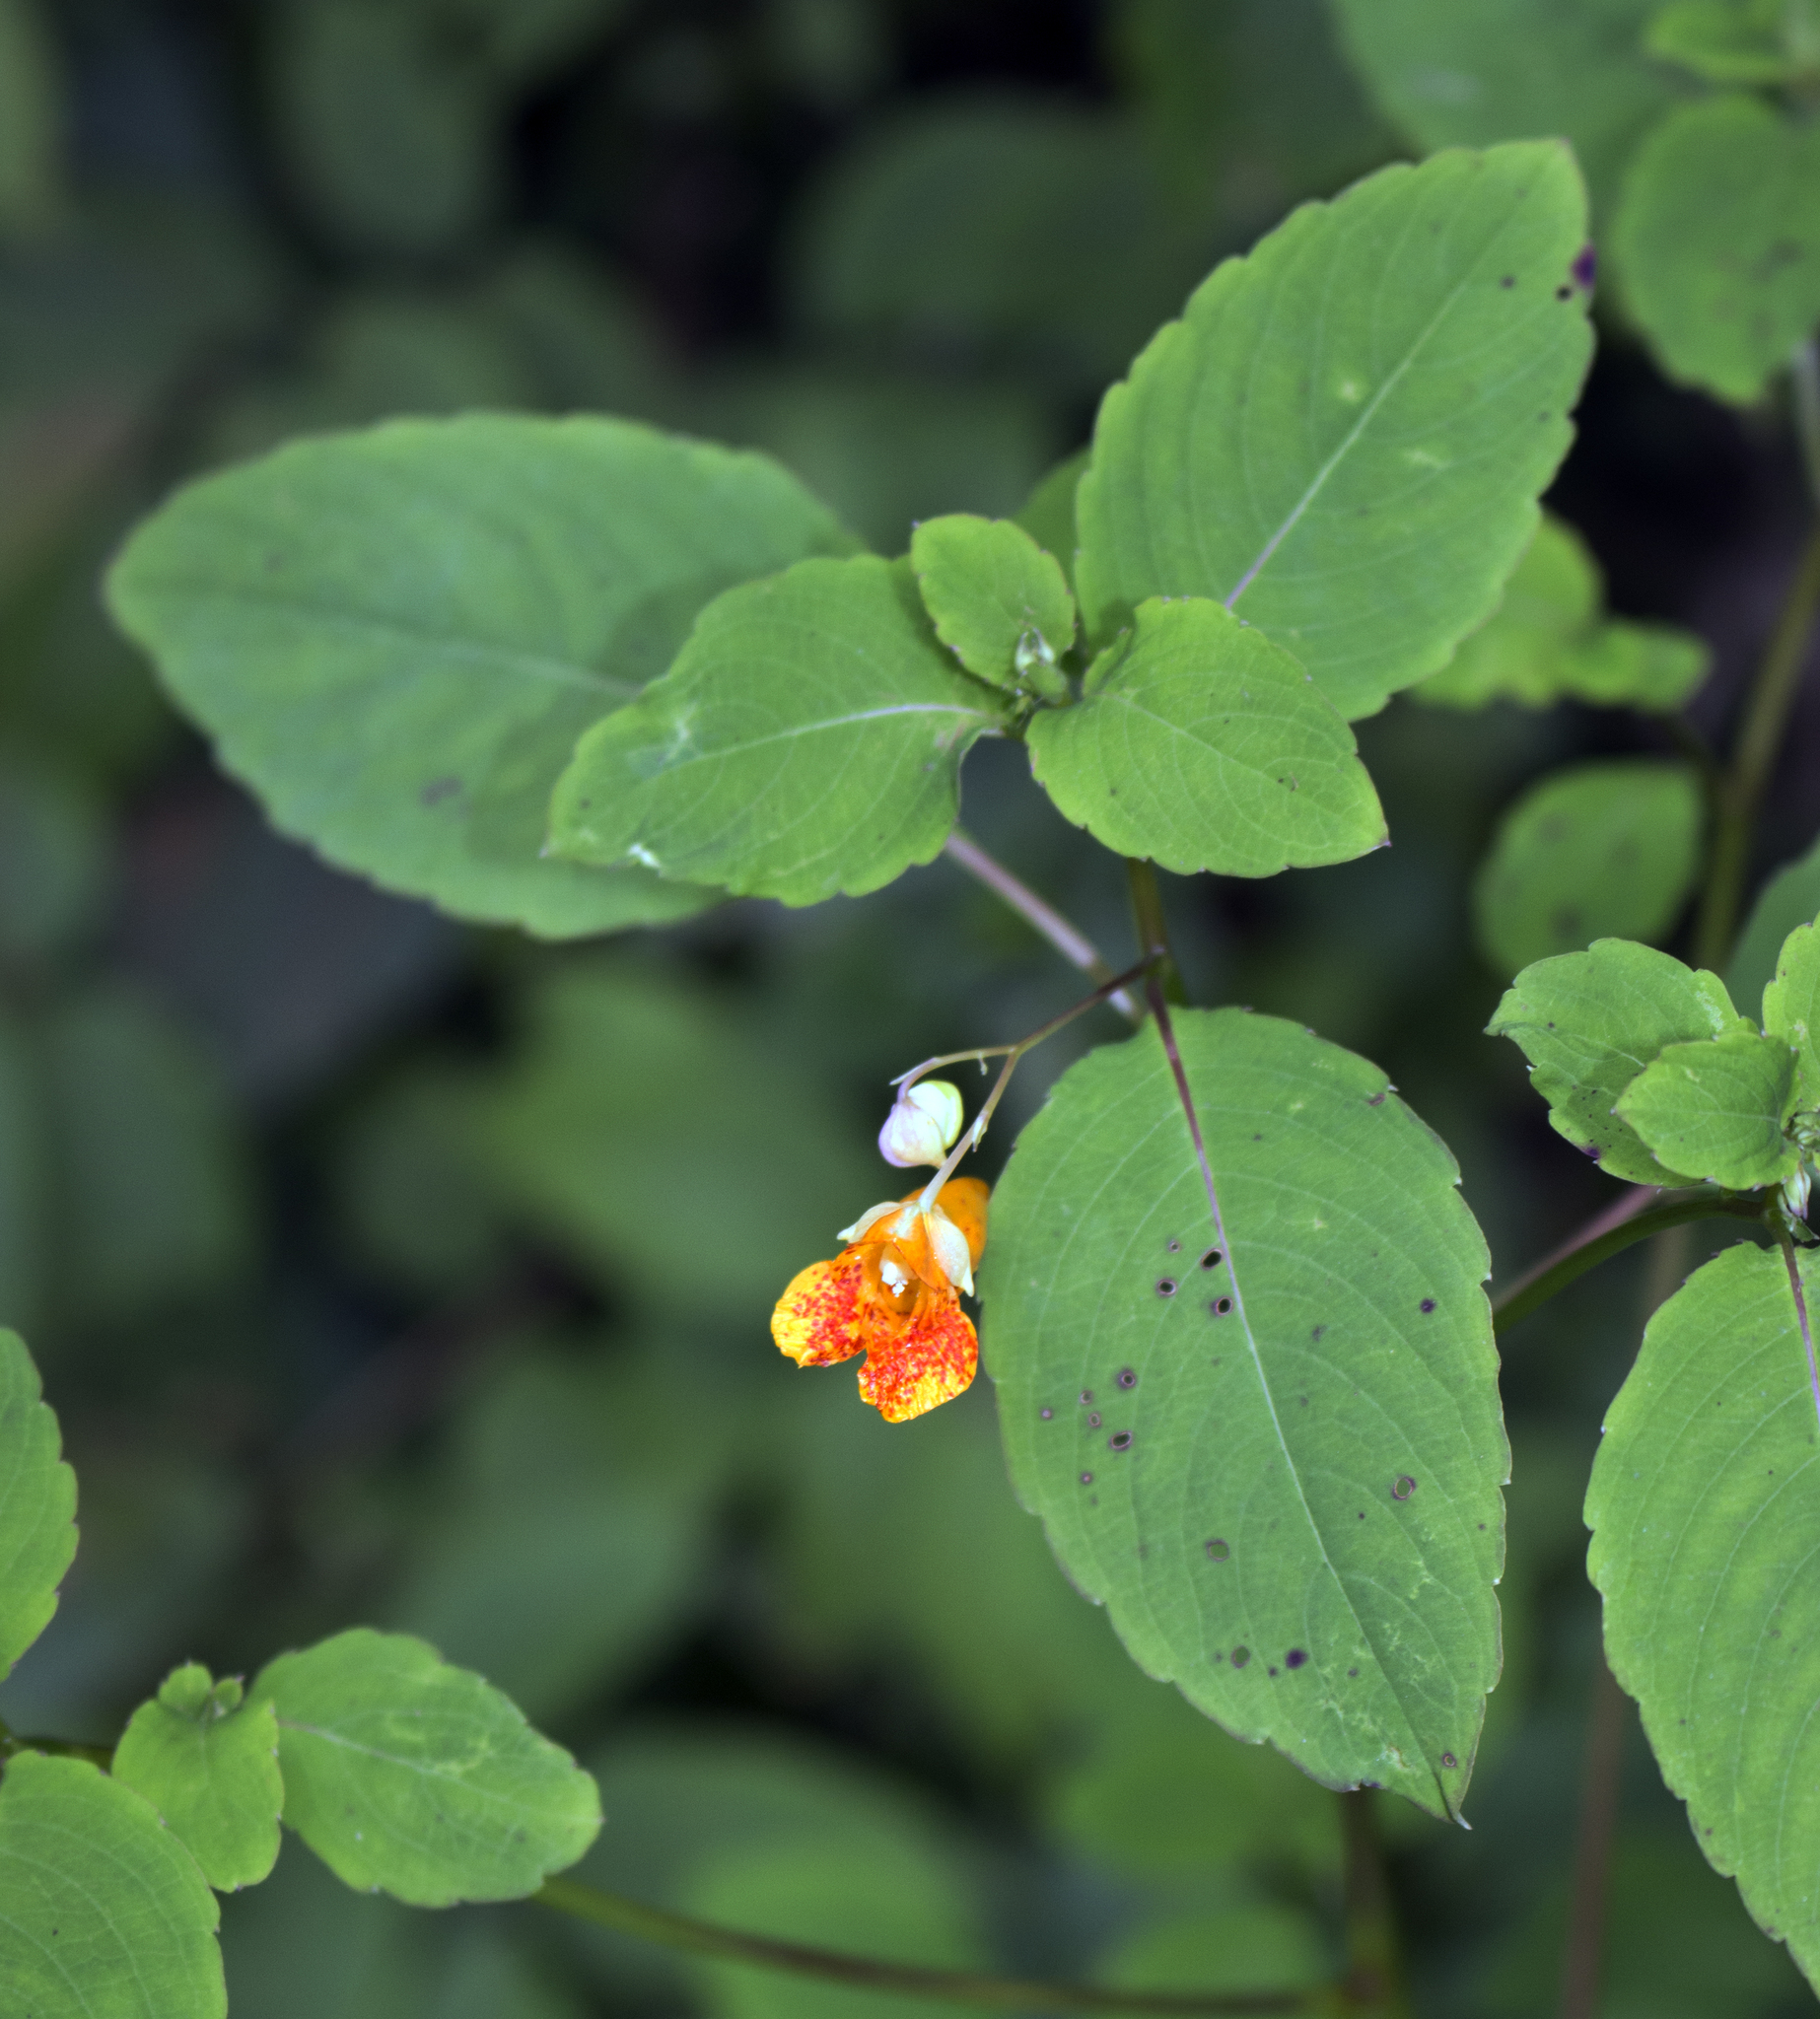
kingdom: Plantae
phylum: Tracheophyta
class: Magnoliopsida
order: Ericales
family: Balsaminaceae
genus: Impatiens
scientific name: Impatiens capensis
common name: Orange balsam
